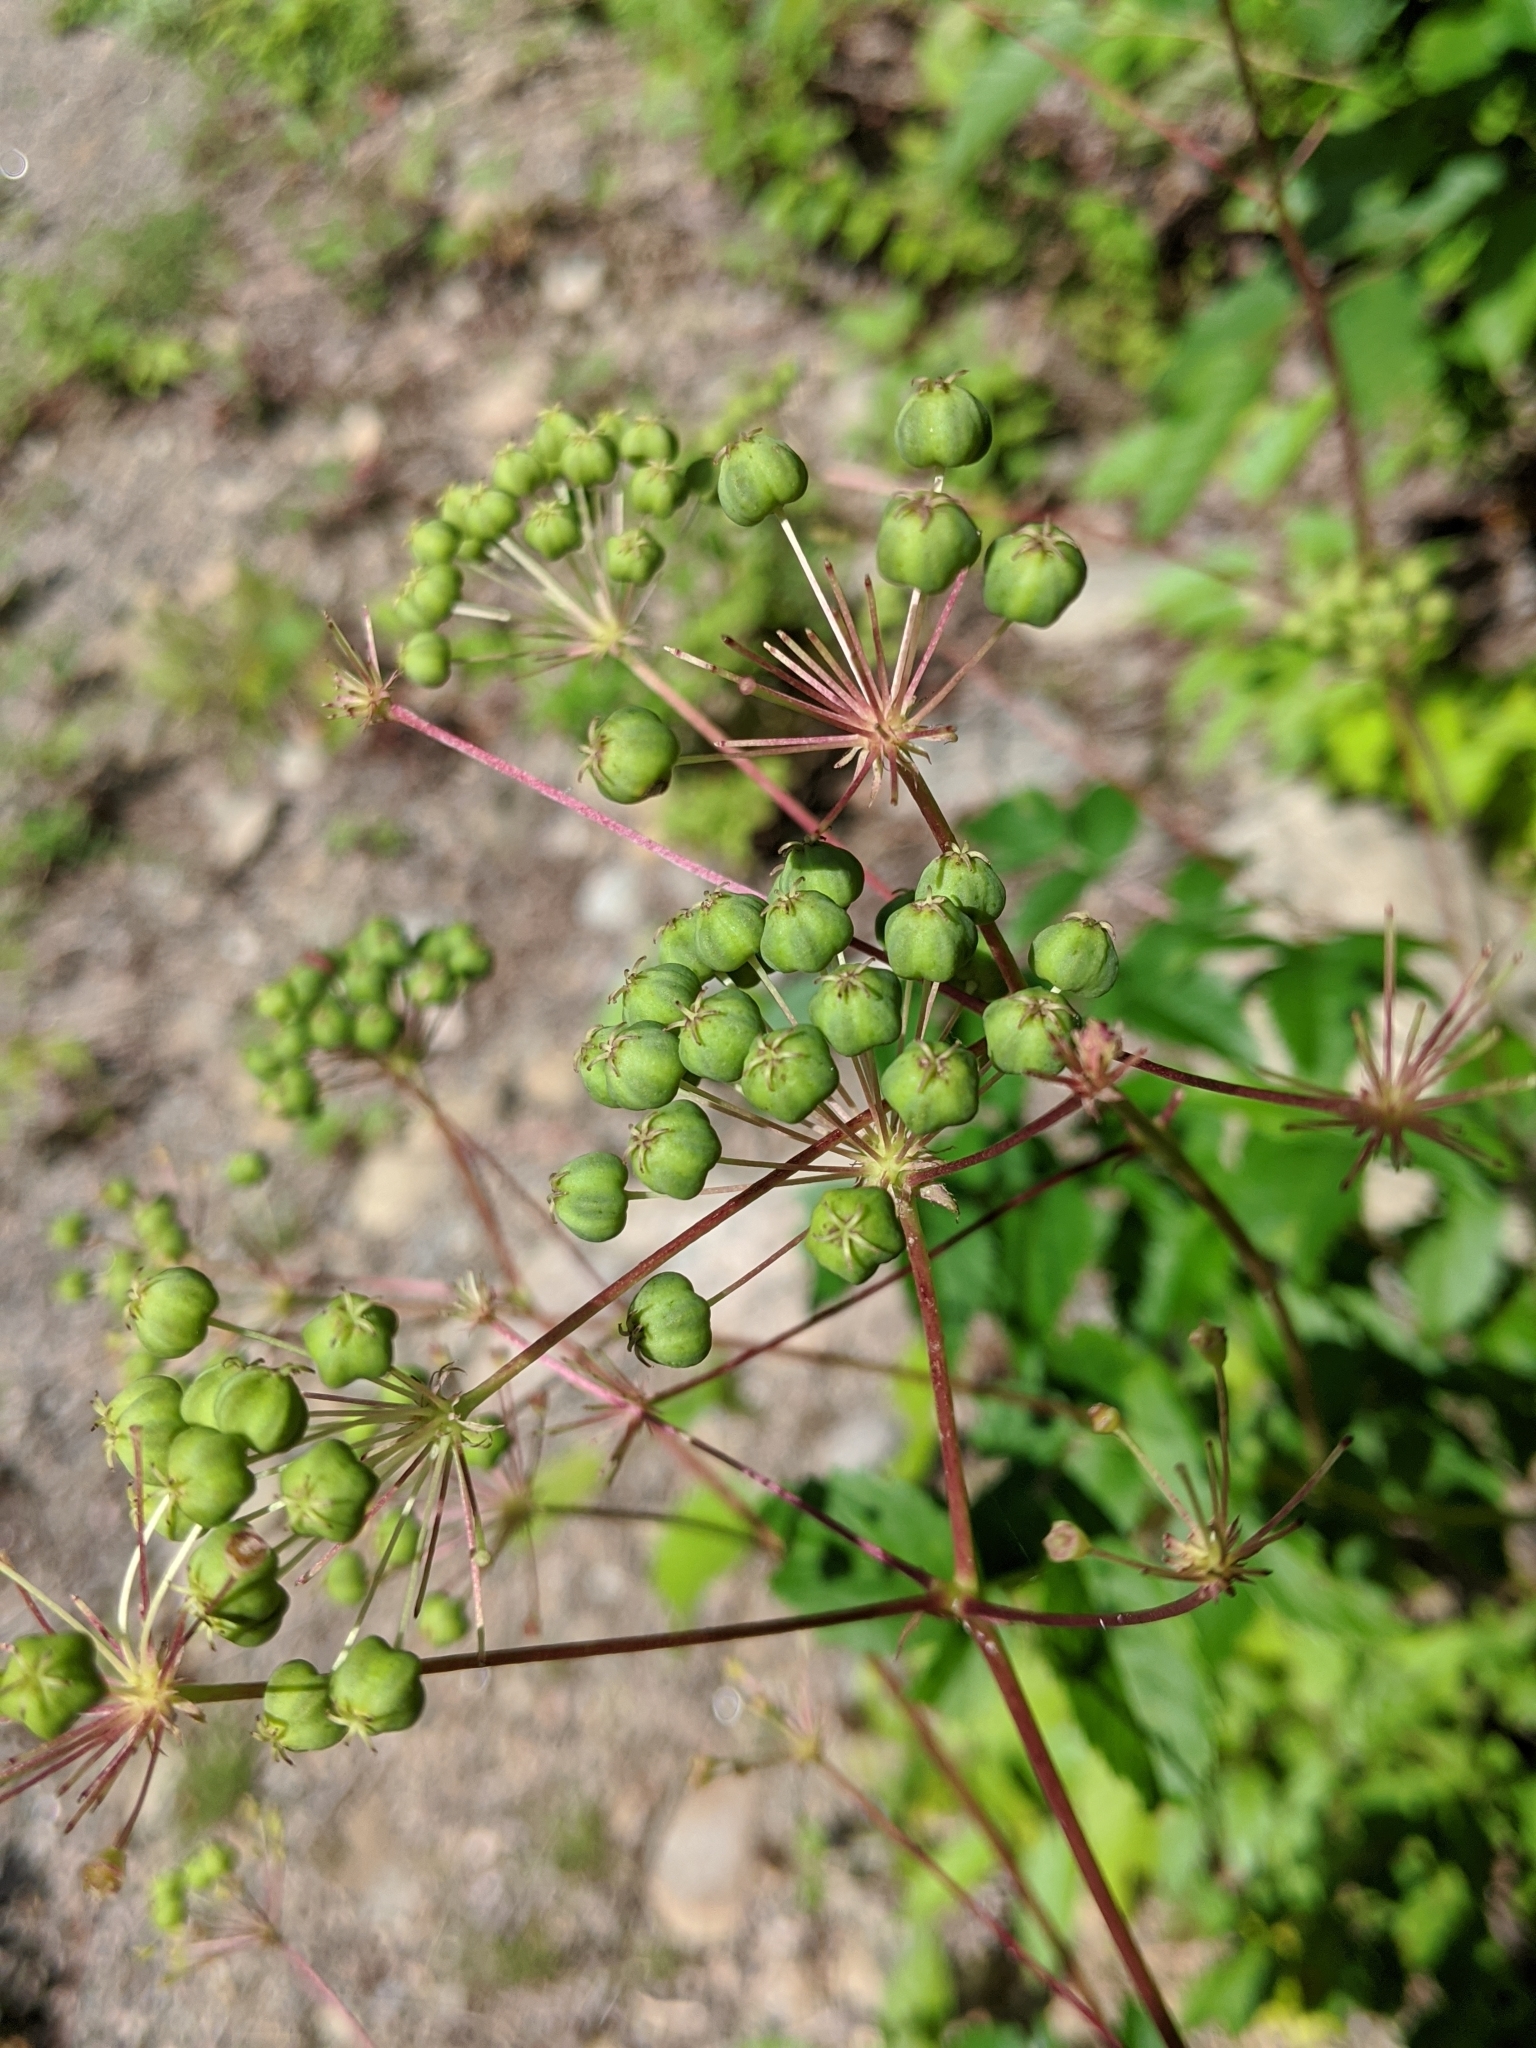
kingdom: Plantae
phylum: Tracheophyta
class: Magnoliopsida
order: Apiales
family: Araliaceae
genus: Aralia
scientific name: Aralia hispida
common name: Bristly sarsaparilla
